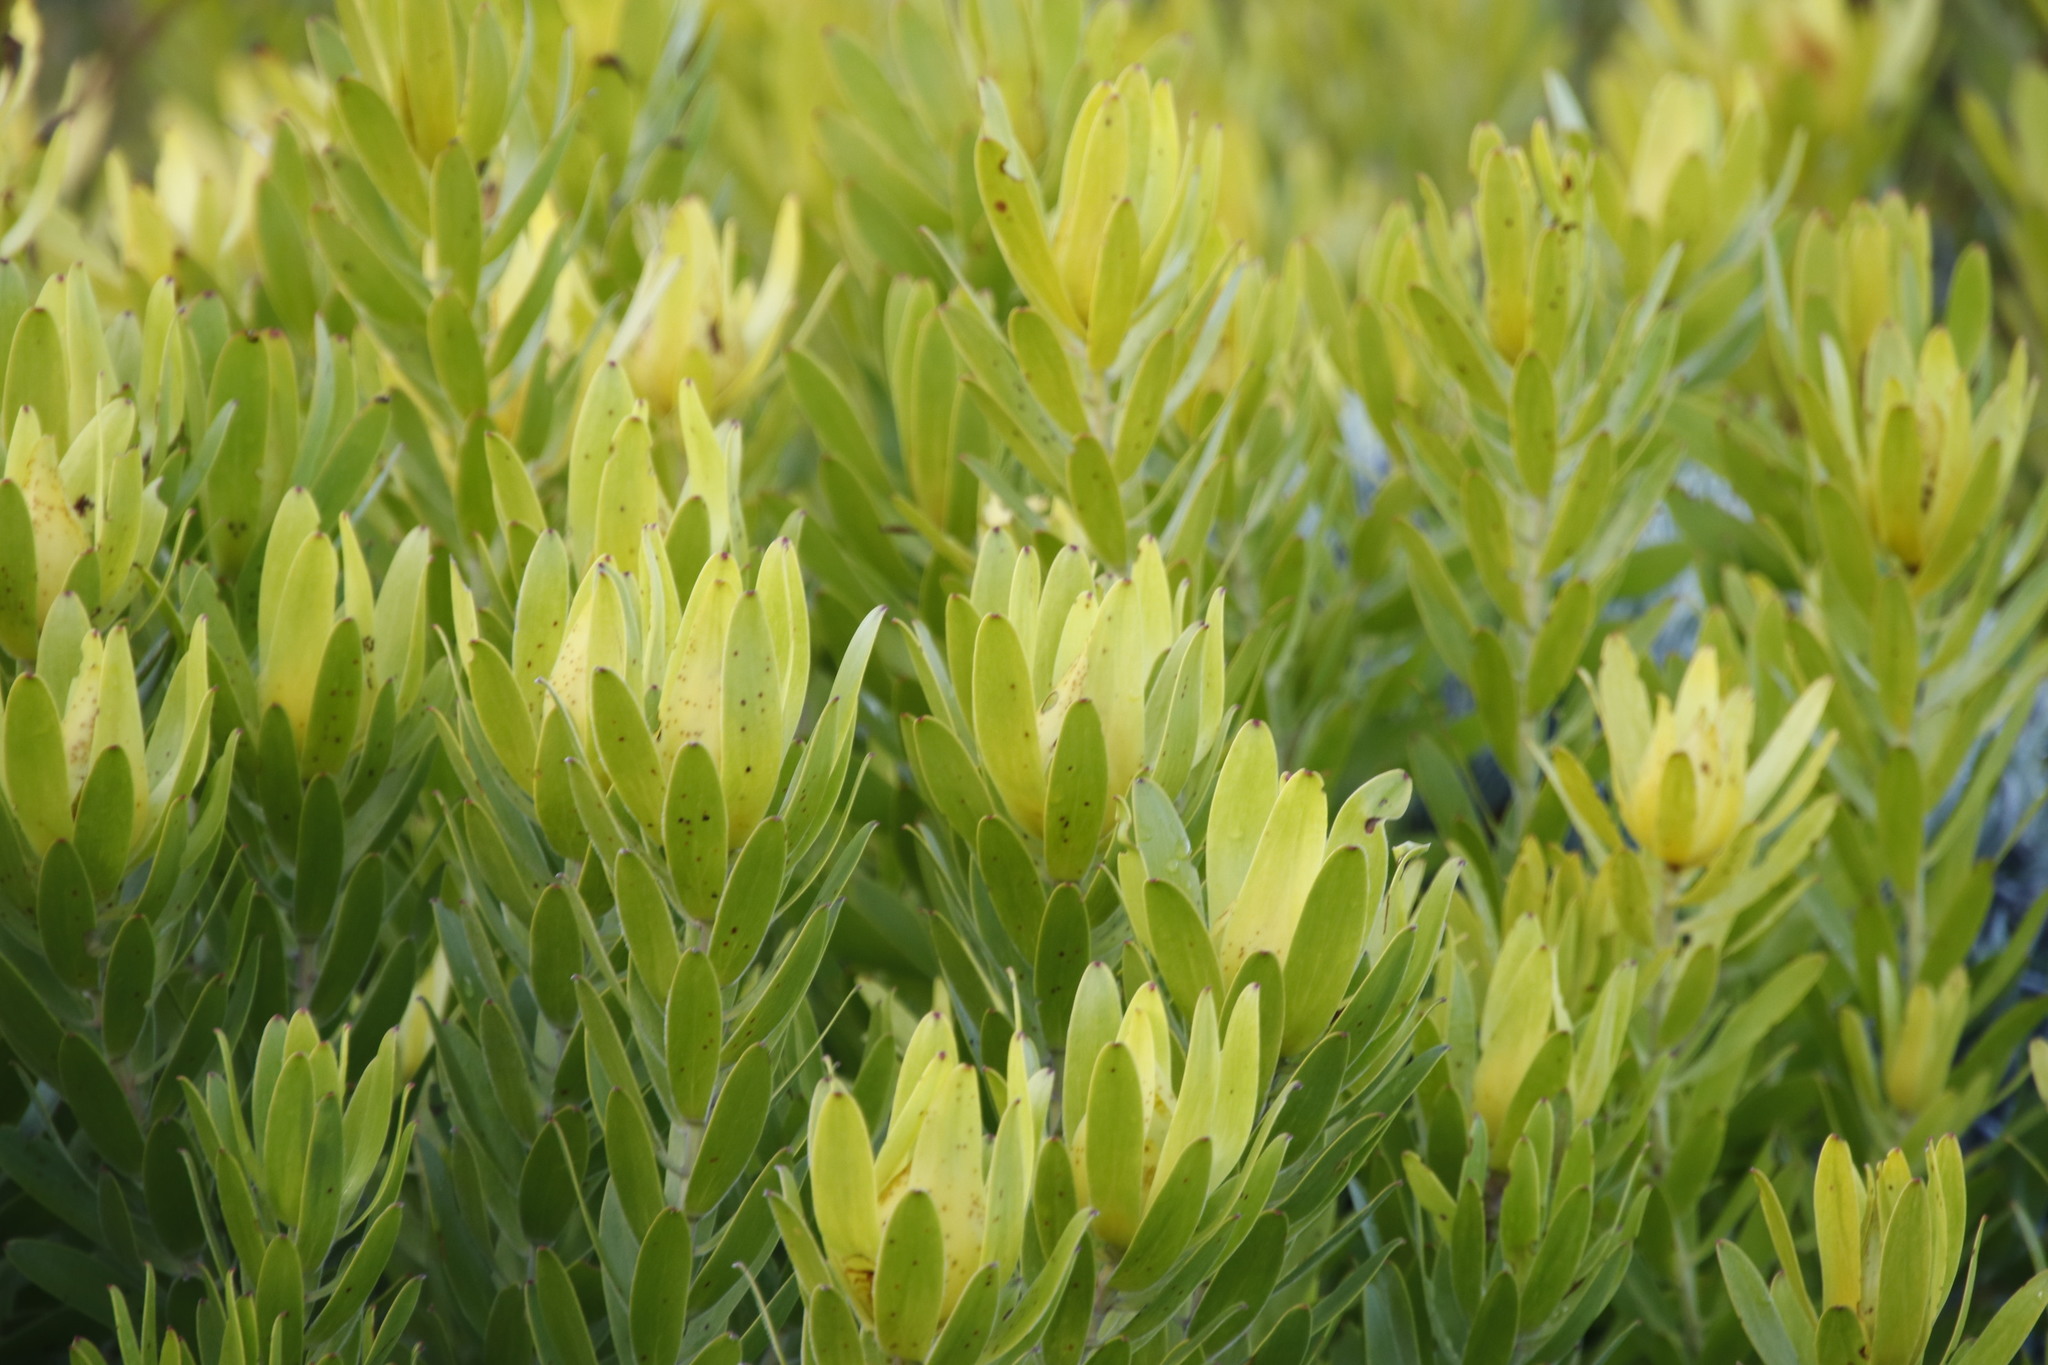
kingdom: Plantae
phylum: Tracheophyta
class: Magnoliopsida
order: Proteales
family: Proteaceae
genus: Leucadendron
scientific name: Leucadendron laureolum
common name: Golden sunshinebush
